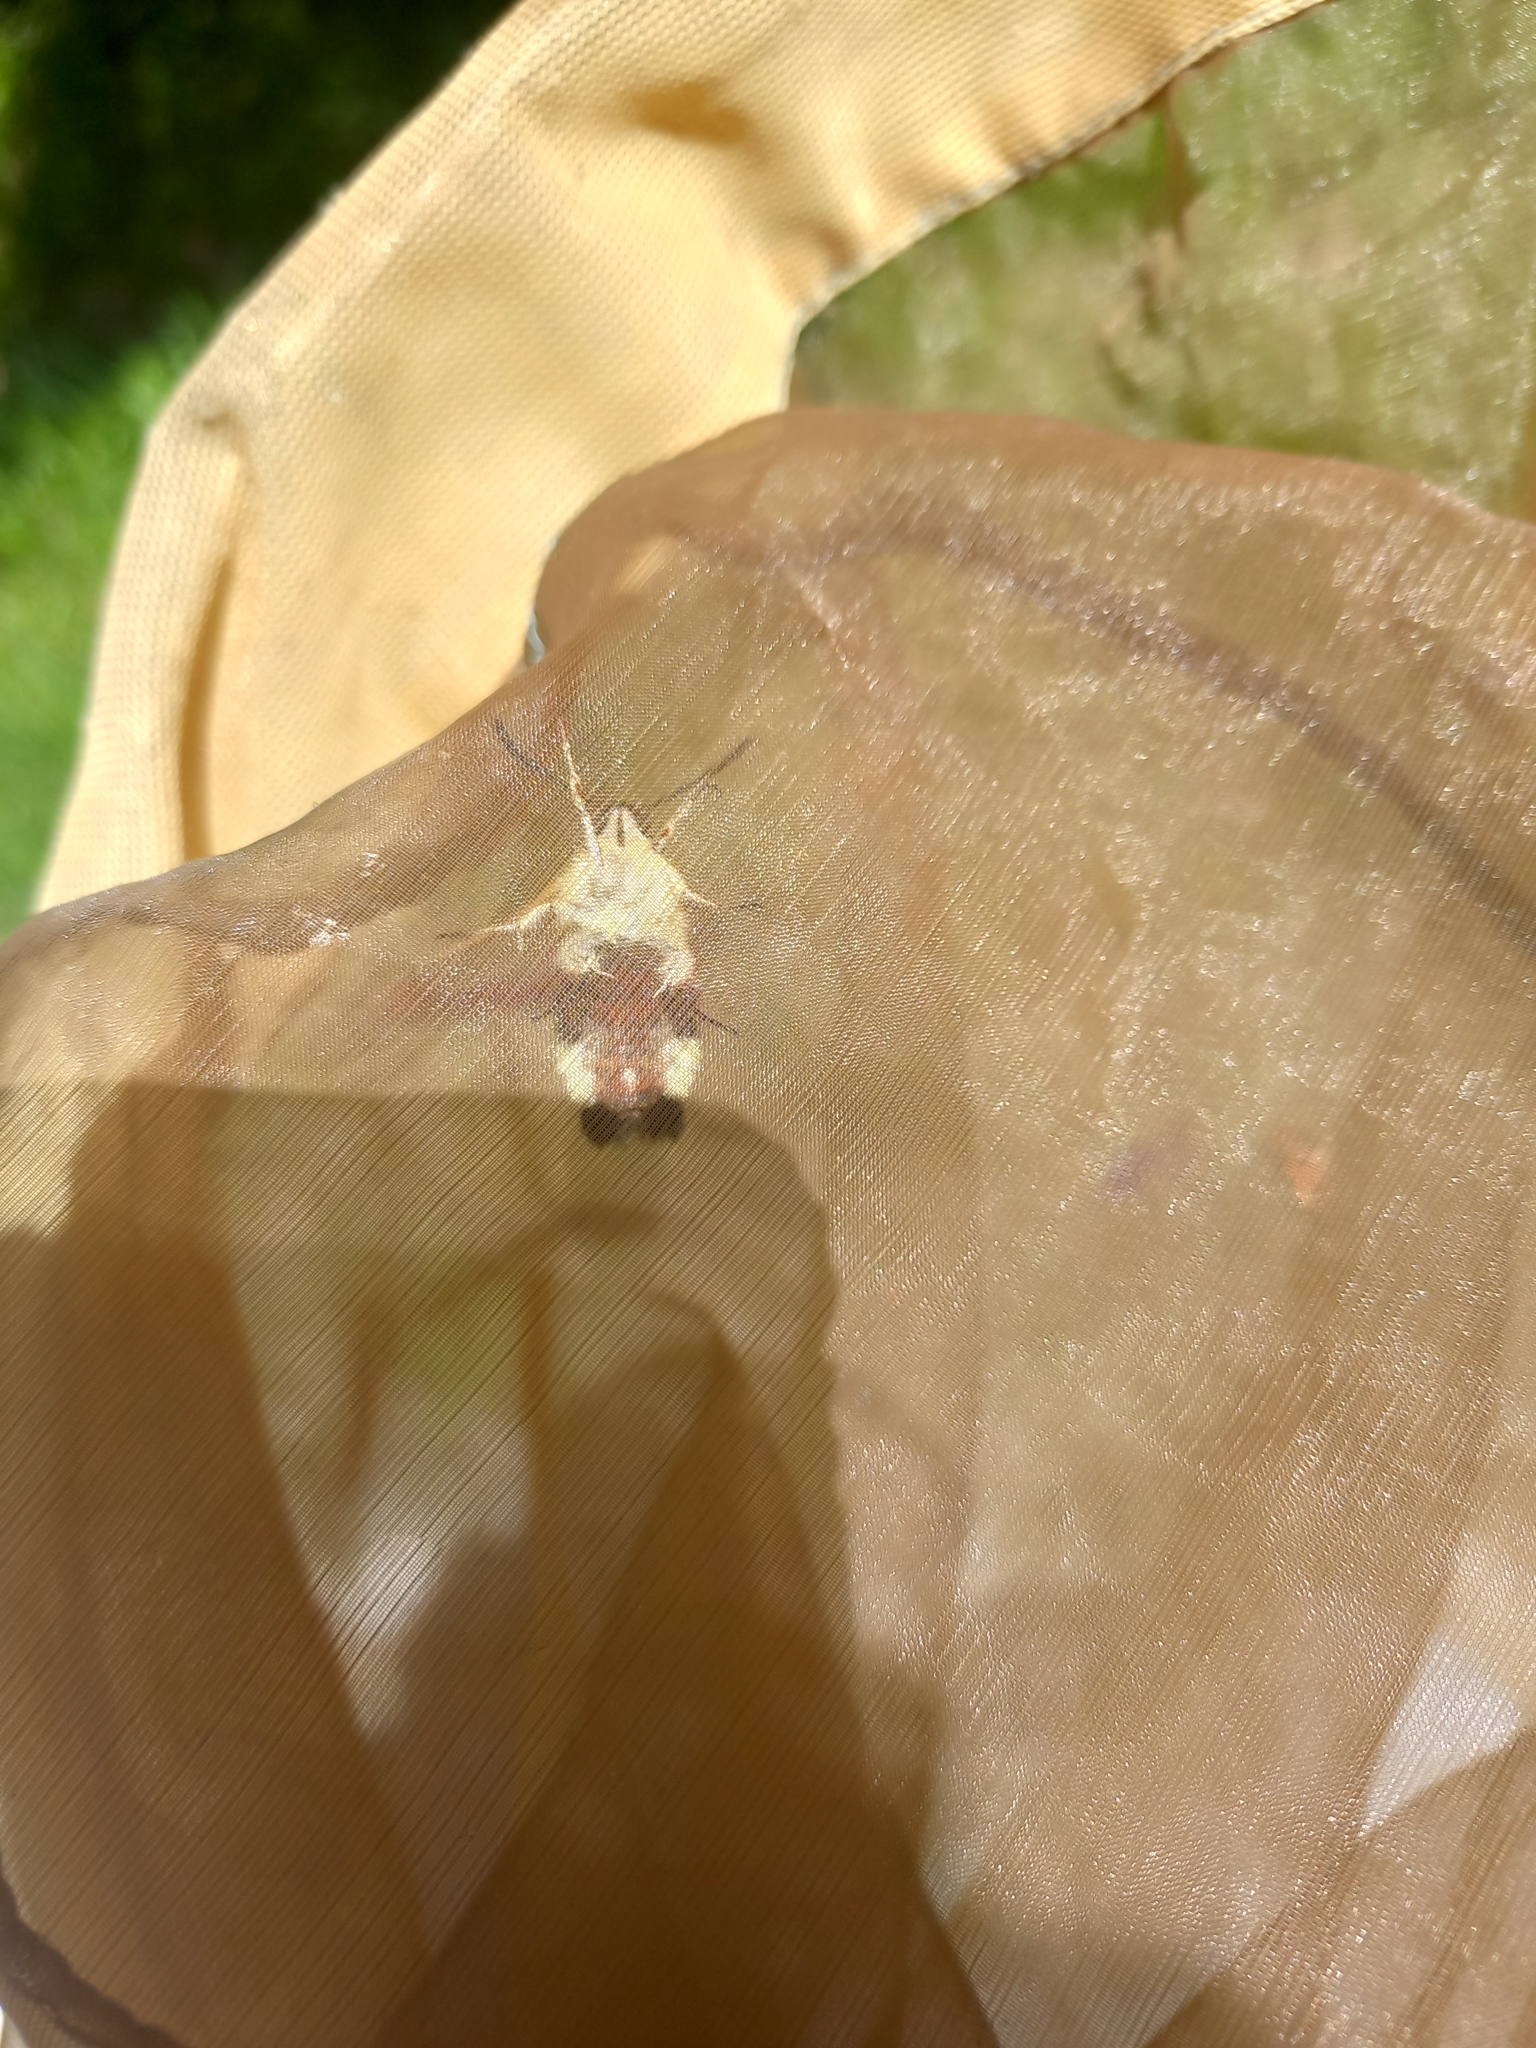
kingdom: Animalia
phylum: Arthropoda
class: Insecta
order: Lepidoptera
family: Sphingidae
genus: Hemaris
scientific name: Hemaris fuciformis
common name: Broad-bordered bee hawk-moth
